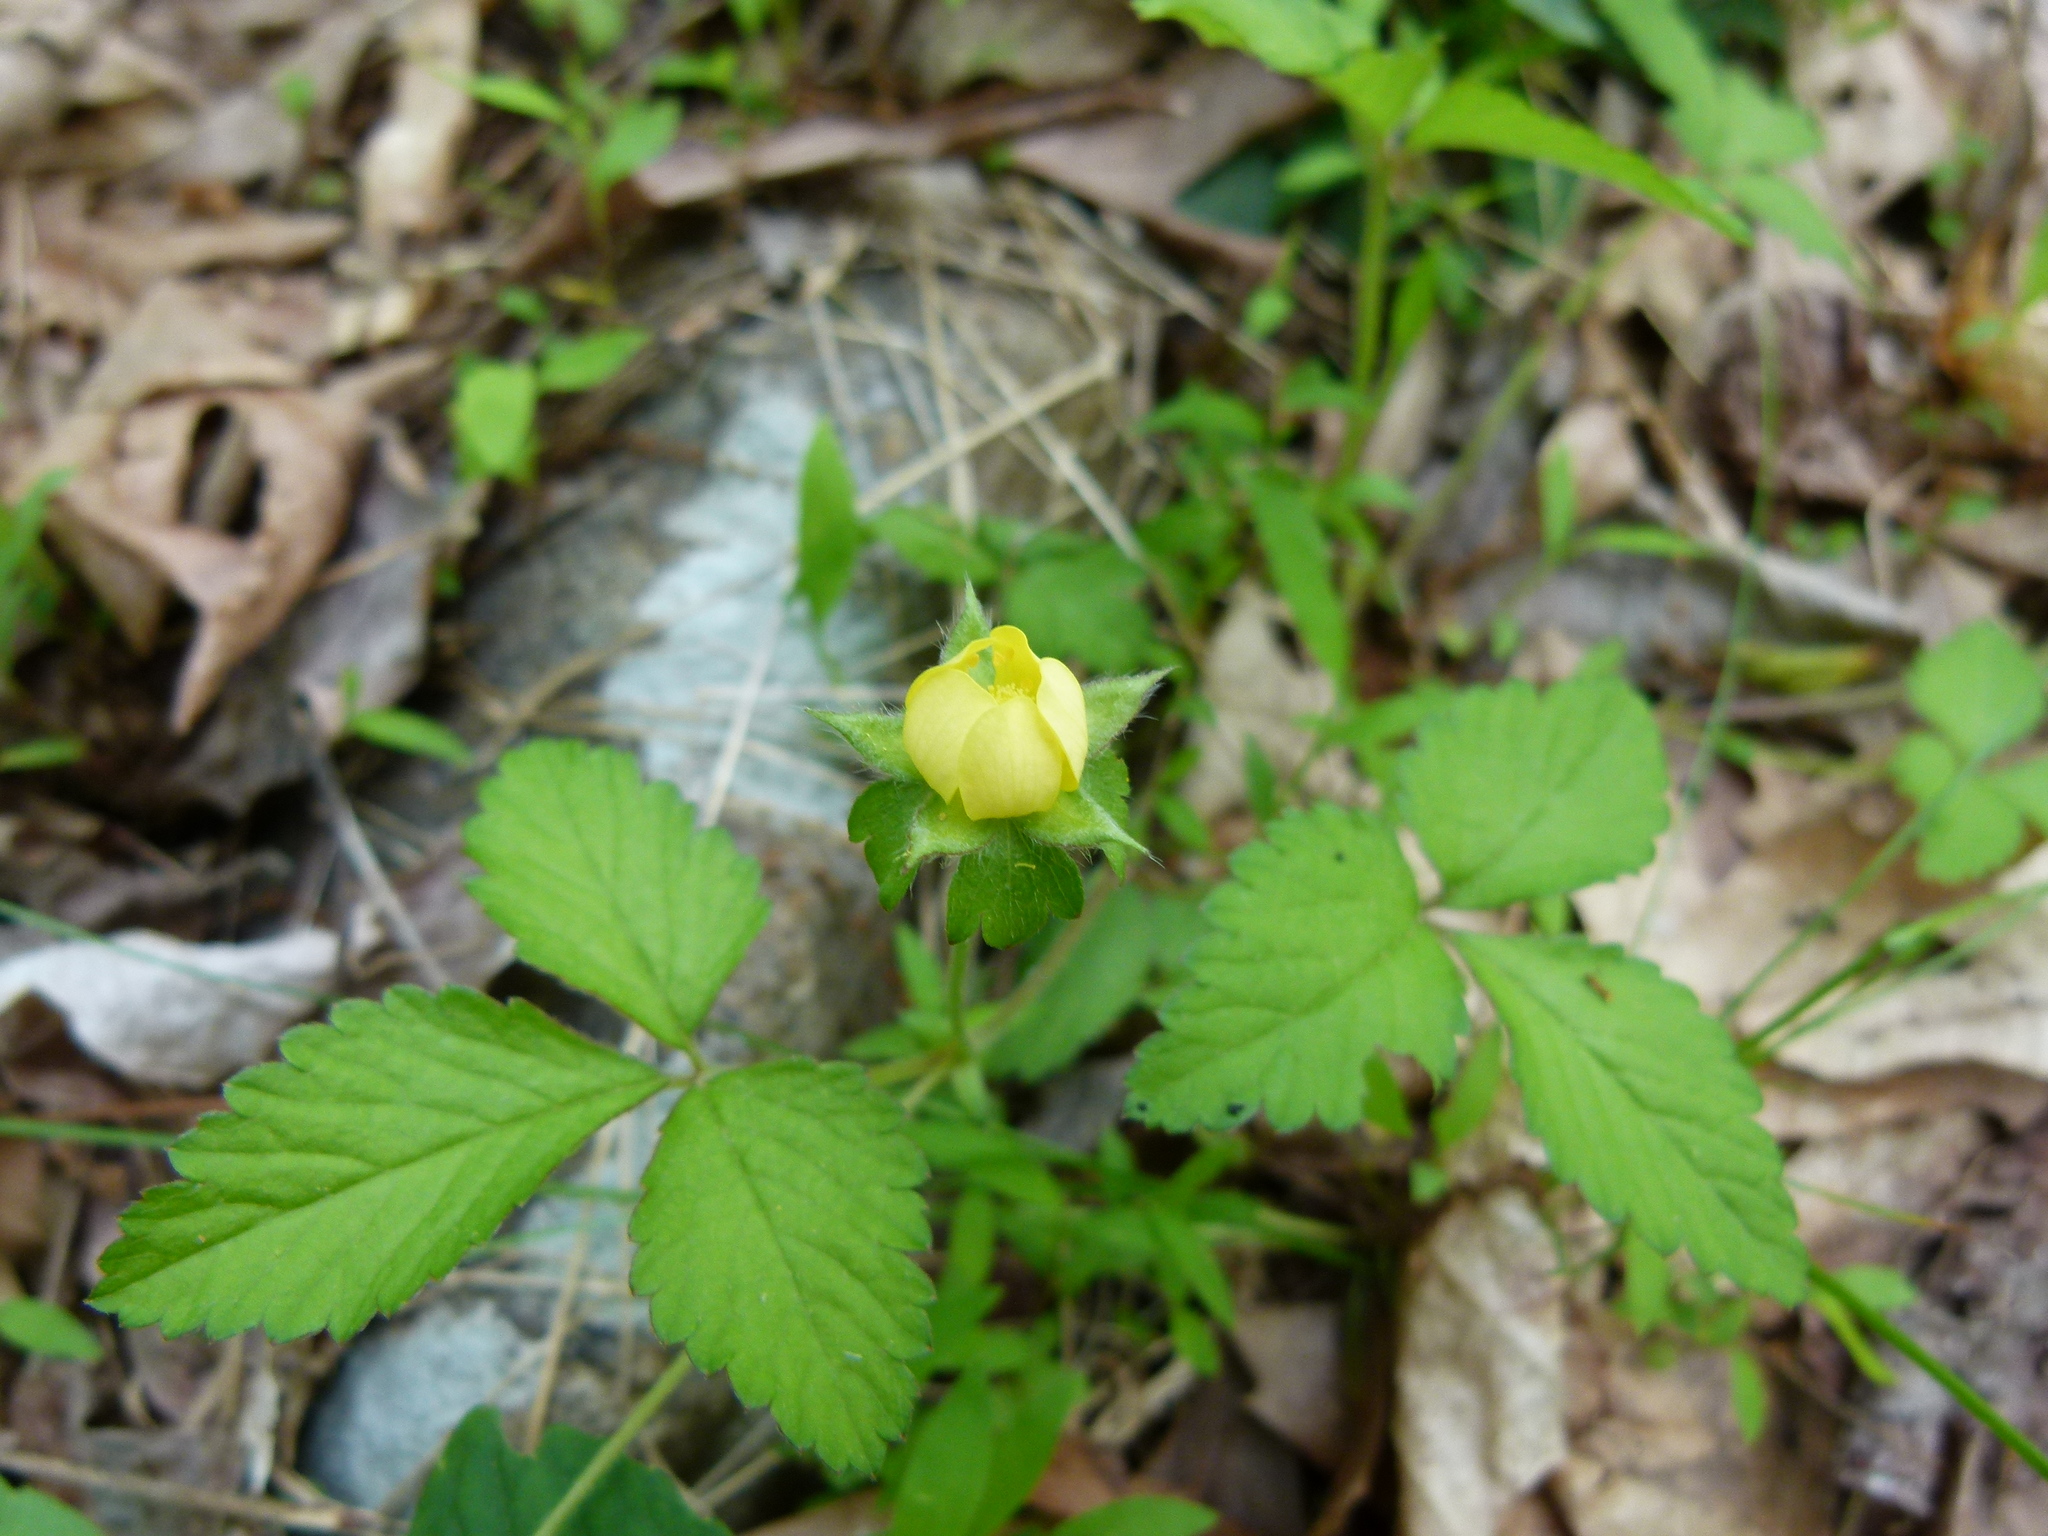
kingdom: Plantae
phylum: Tracheophyta
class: Magnoliopsida
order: Rosales
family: Rosaceae
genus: Potentilla
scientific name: Potentilla indica
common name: Yellow-flowered strawberry
